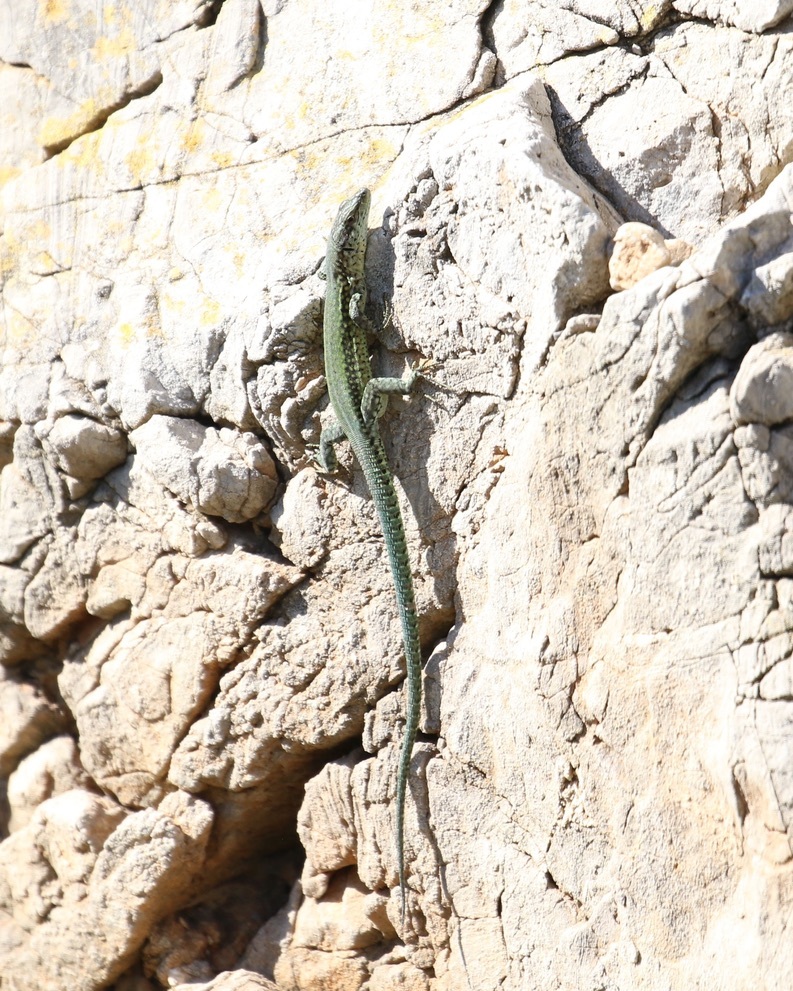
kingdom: Animalia
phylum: Chordata
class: Squamata
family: Lacertidae
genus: Podarcis
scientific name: Podarcis vaucheri
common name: Vaucher's wall lizard
